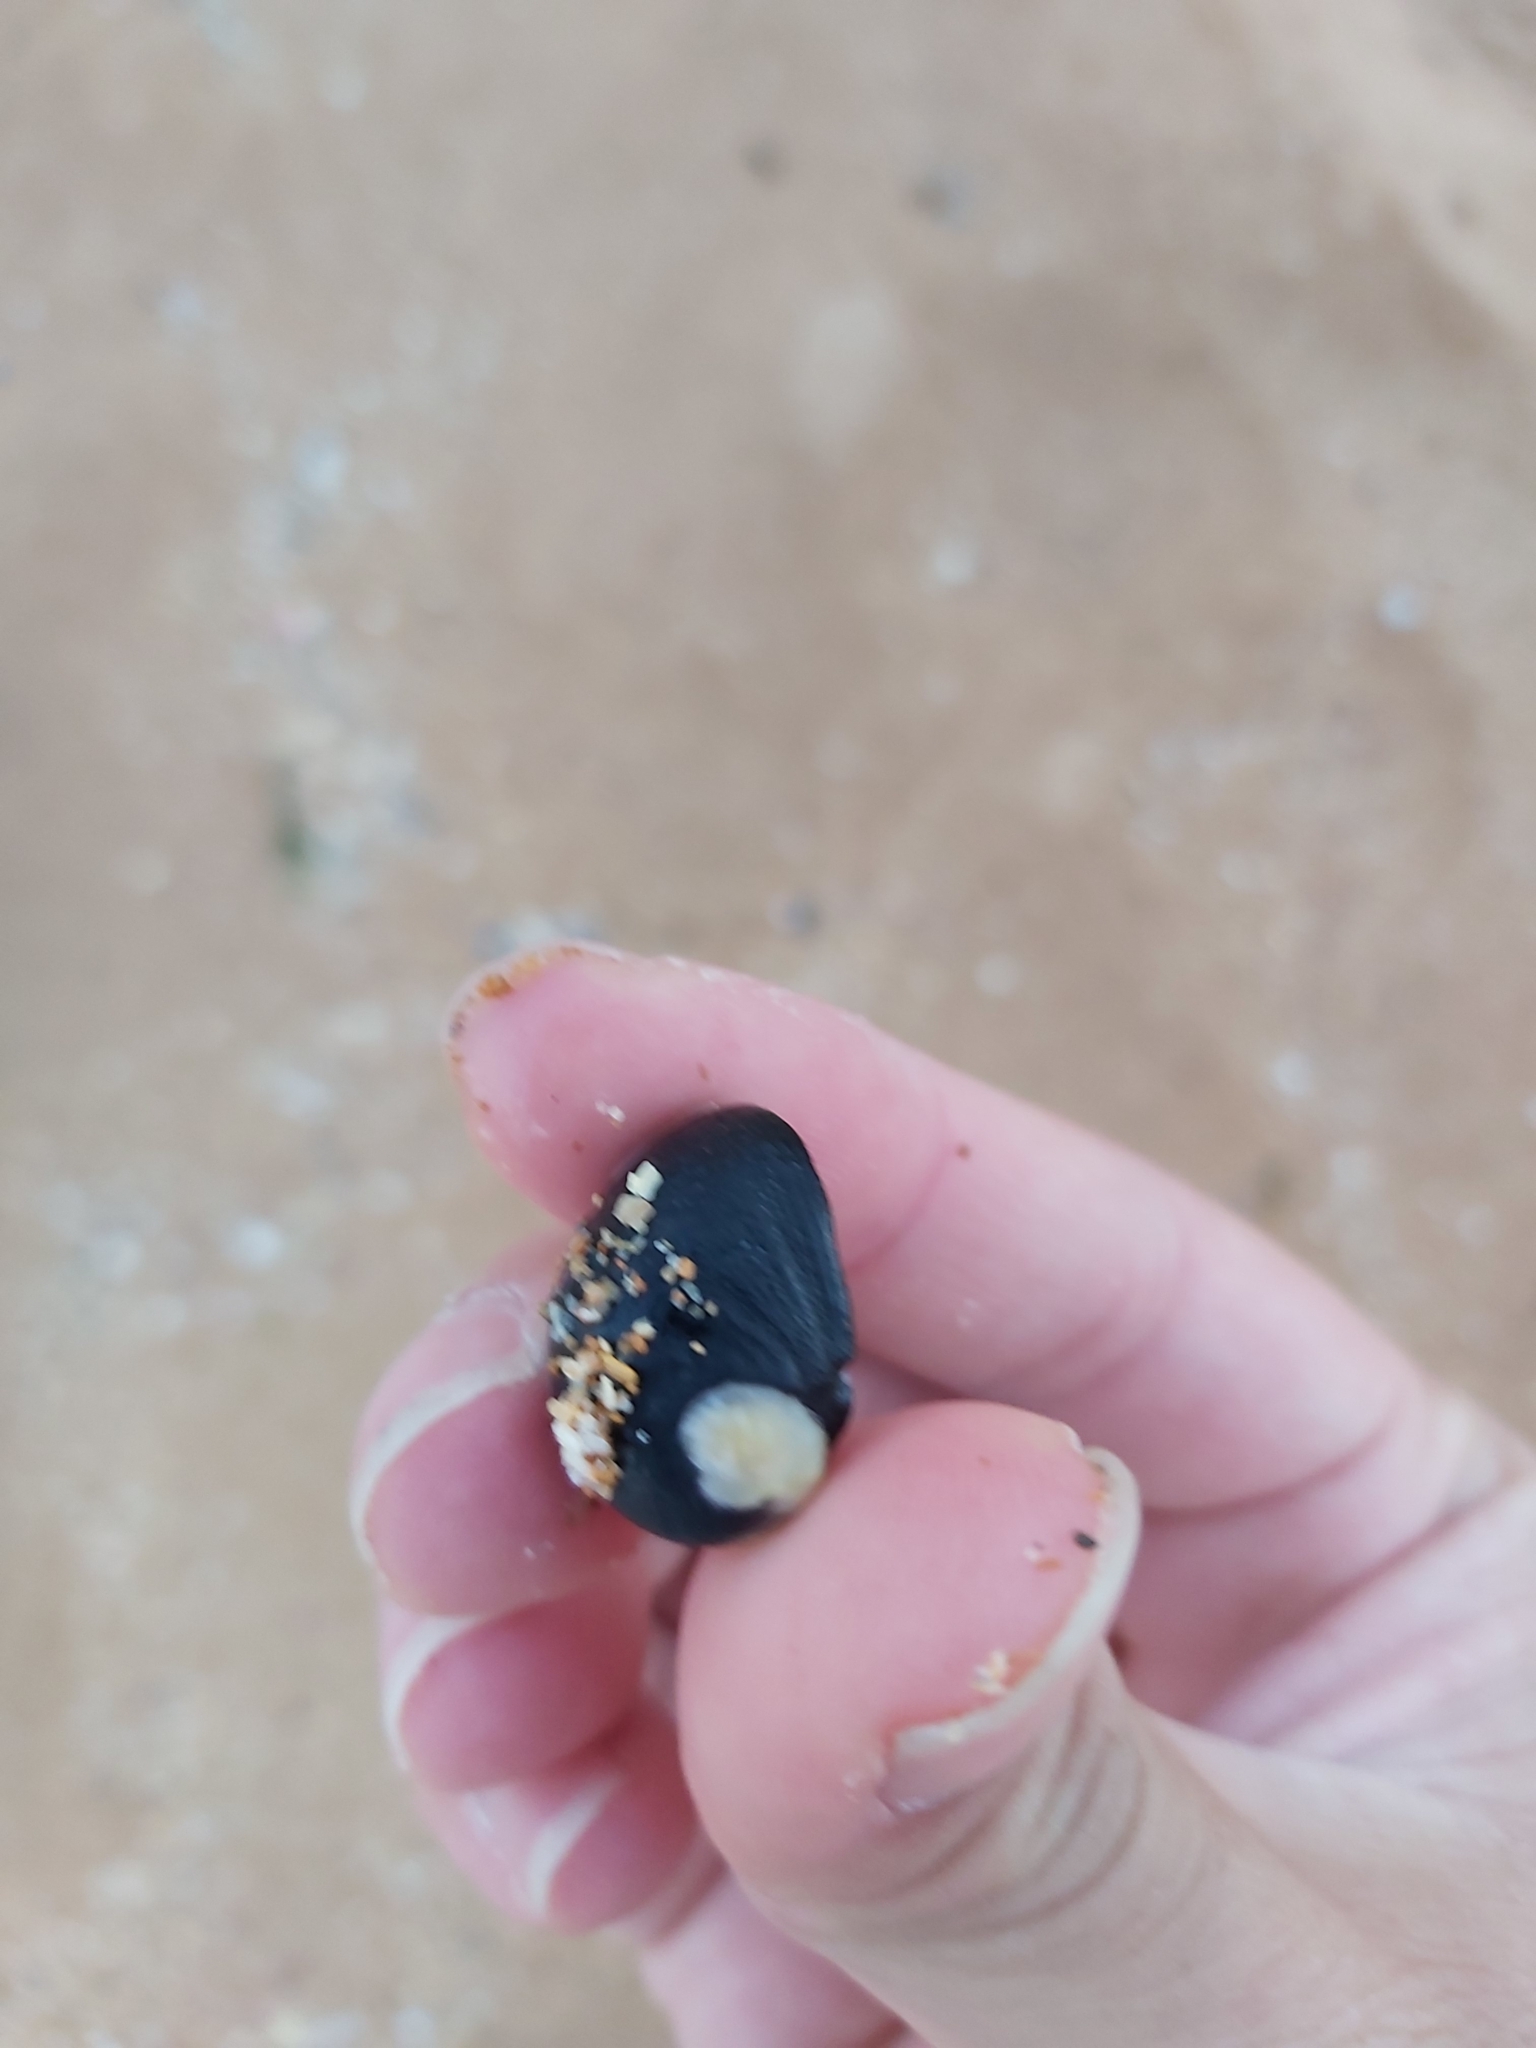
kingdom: Animalia
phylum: Mollusca
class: Gastropoda
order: Cycloneritida
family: Neritidae
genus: Nerita
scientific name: Nerita melanotragus
